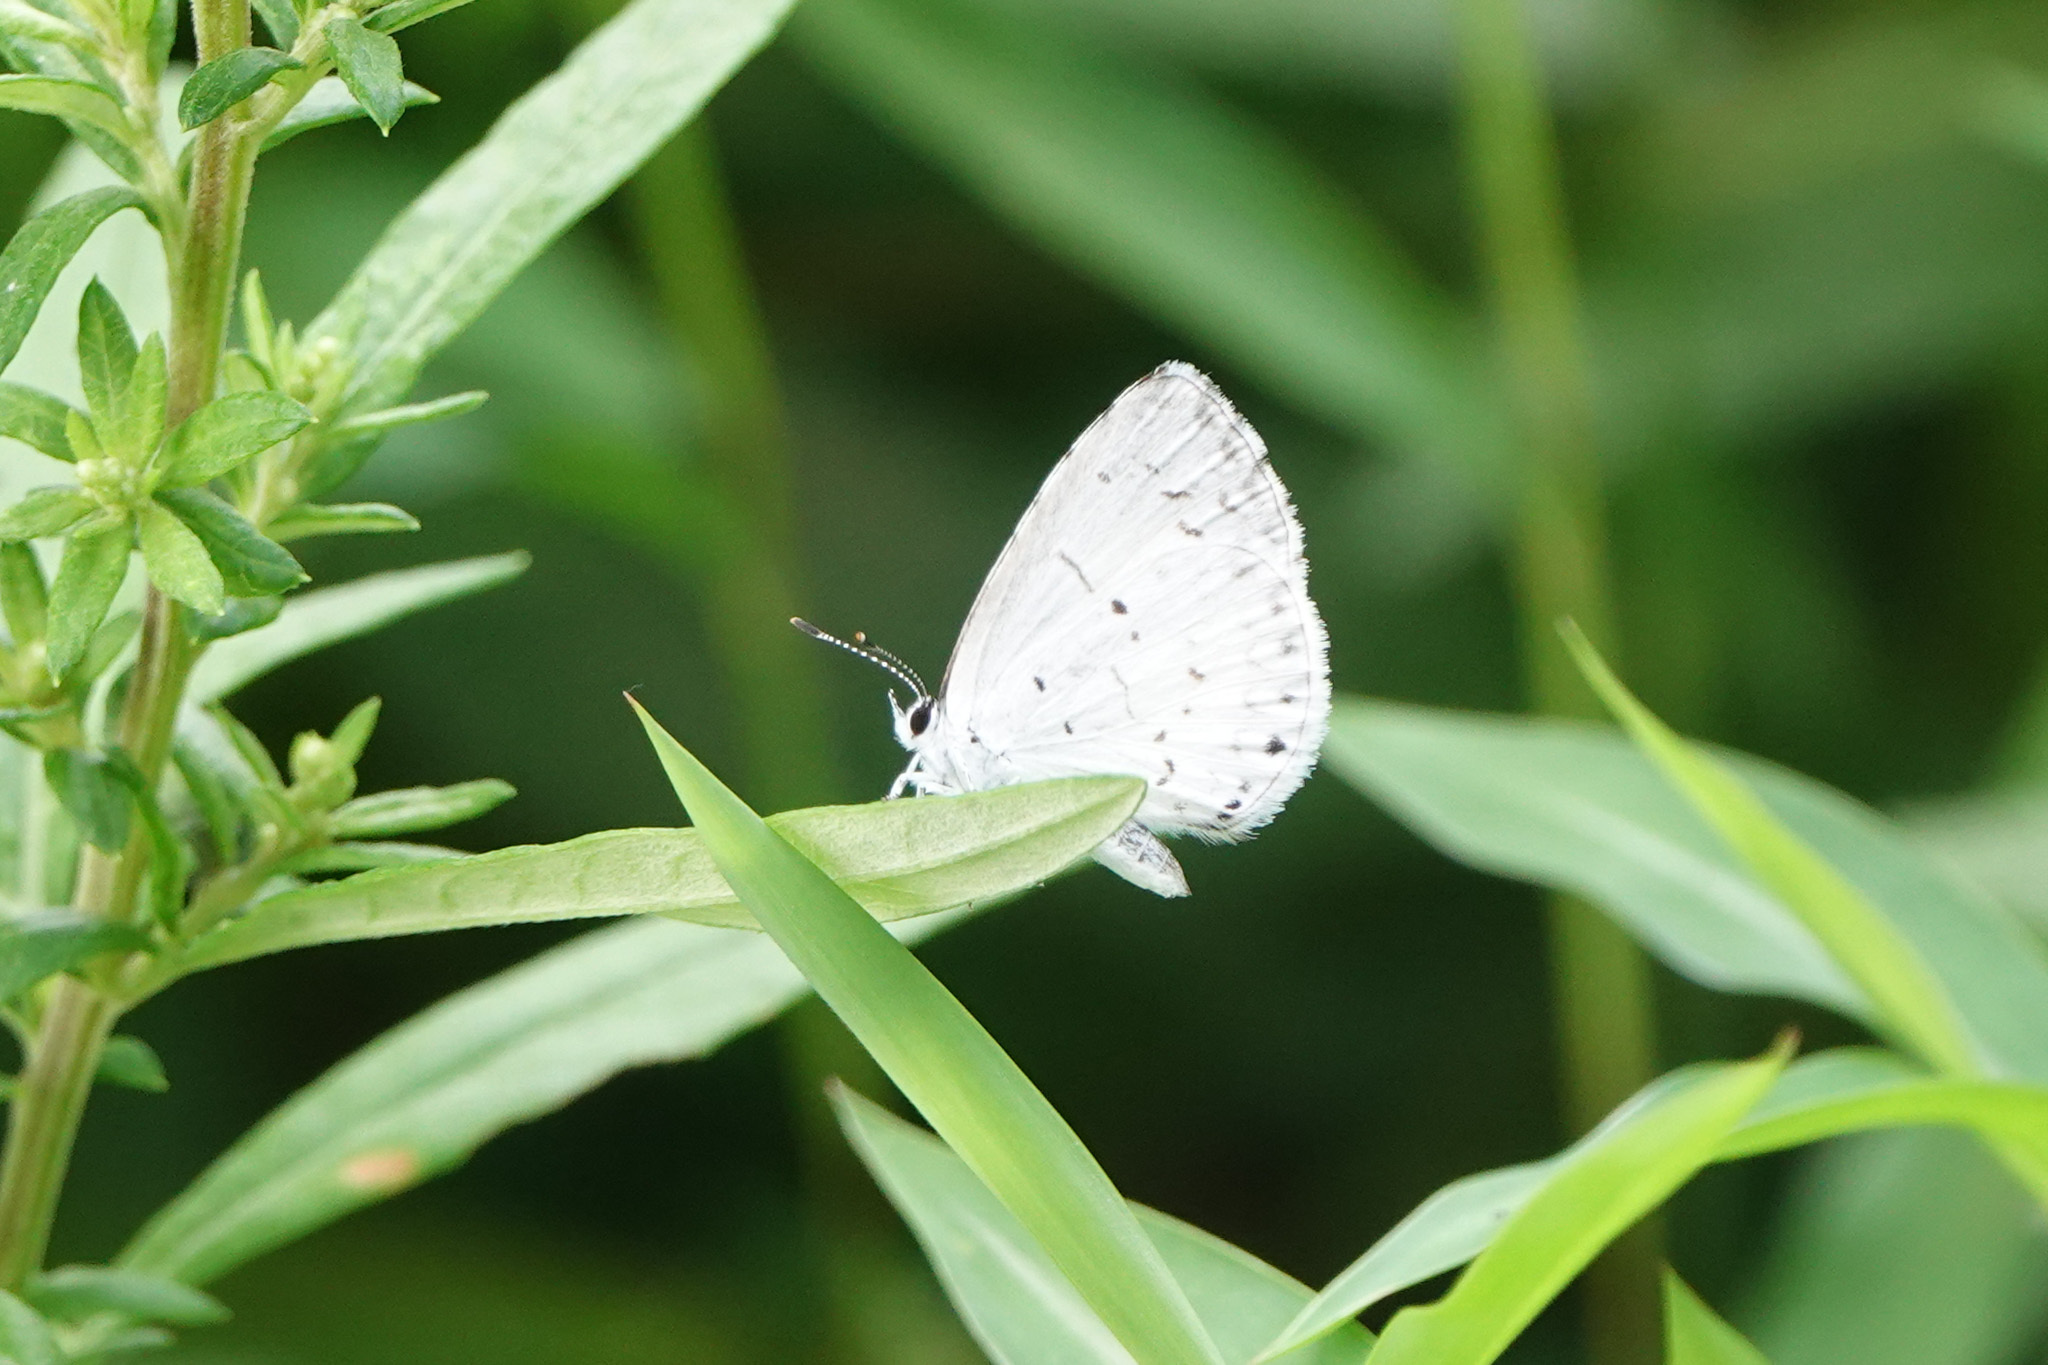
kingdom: Animalia
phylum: Arthropoda
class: Insecta
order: Lepidoptera
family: Lycaenidae
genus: Cyaniris
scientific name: Cyaniris neglecta
